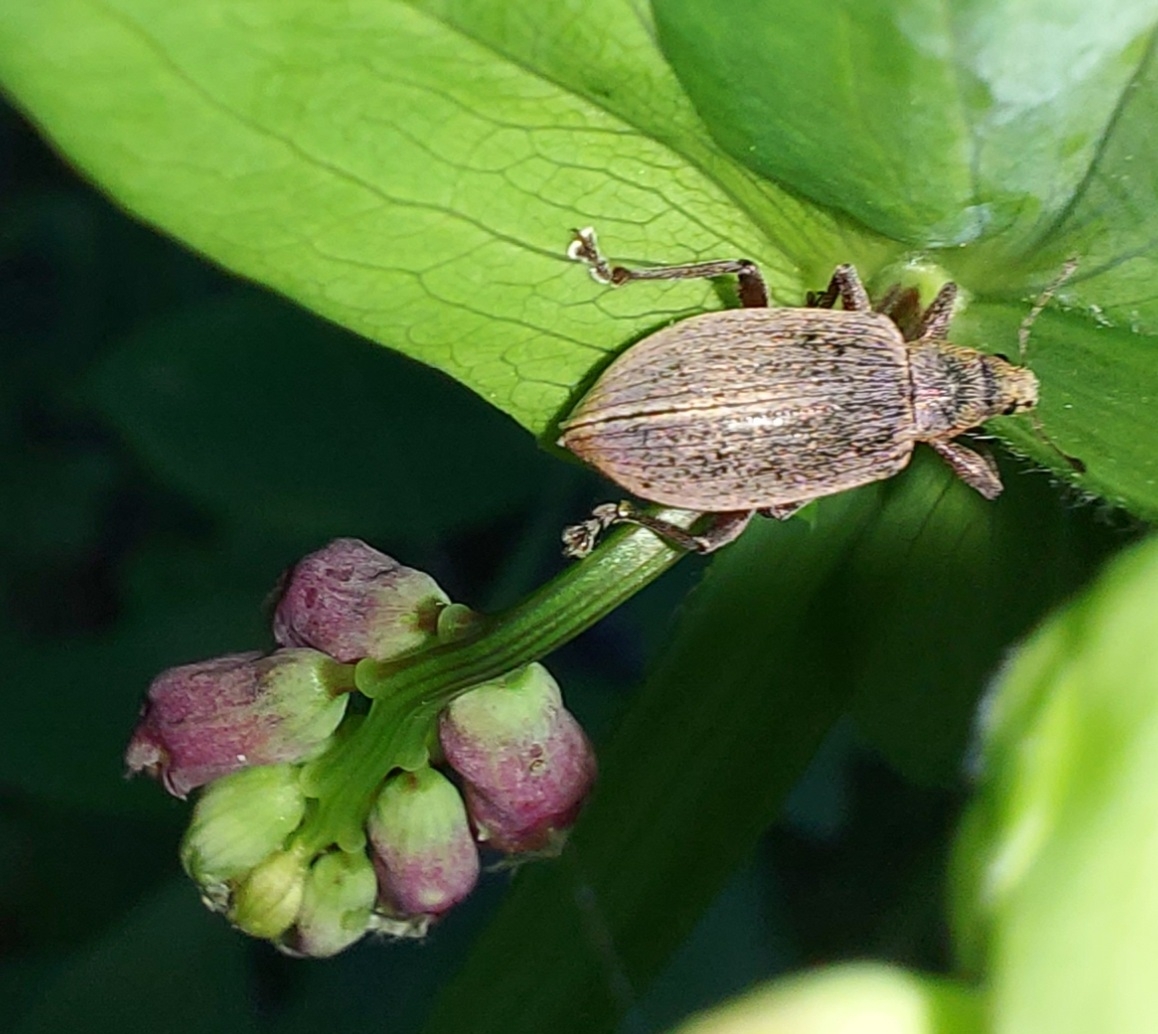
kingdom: Animalia
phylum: Arthropoda
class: Insecta
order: Coleoptera
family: Curculionidae
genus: Polydrusus
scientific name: Polydrusus mollis
